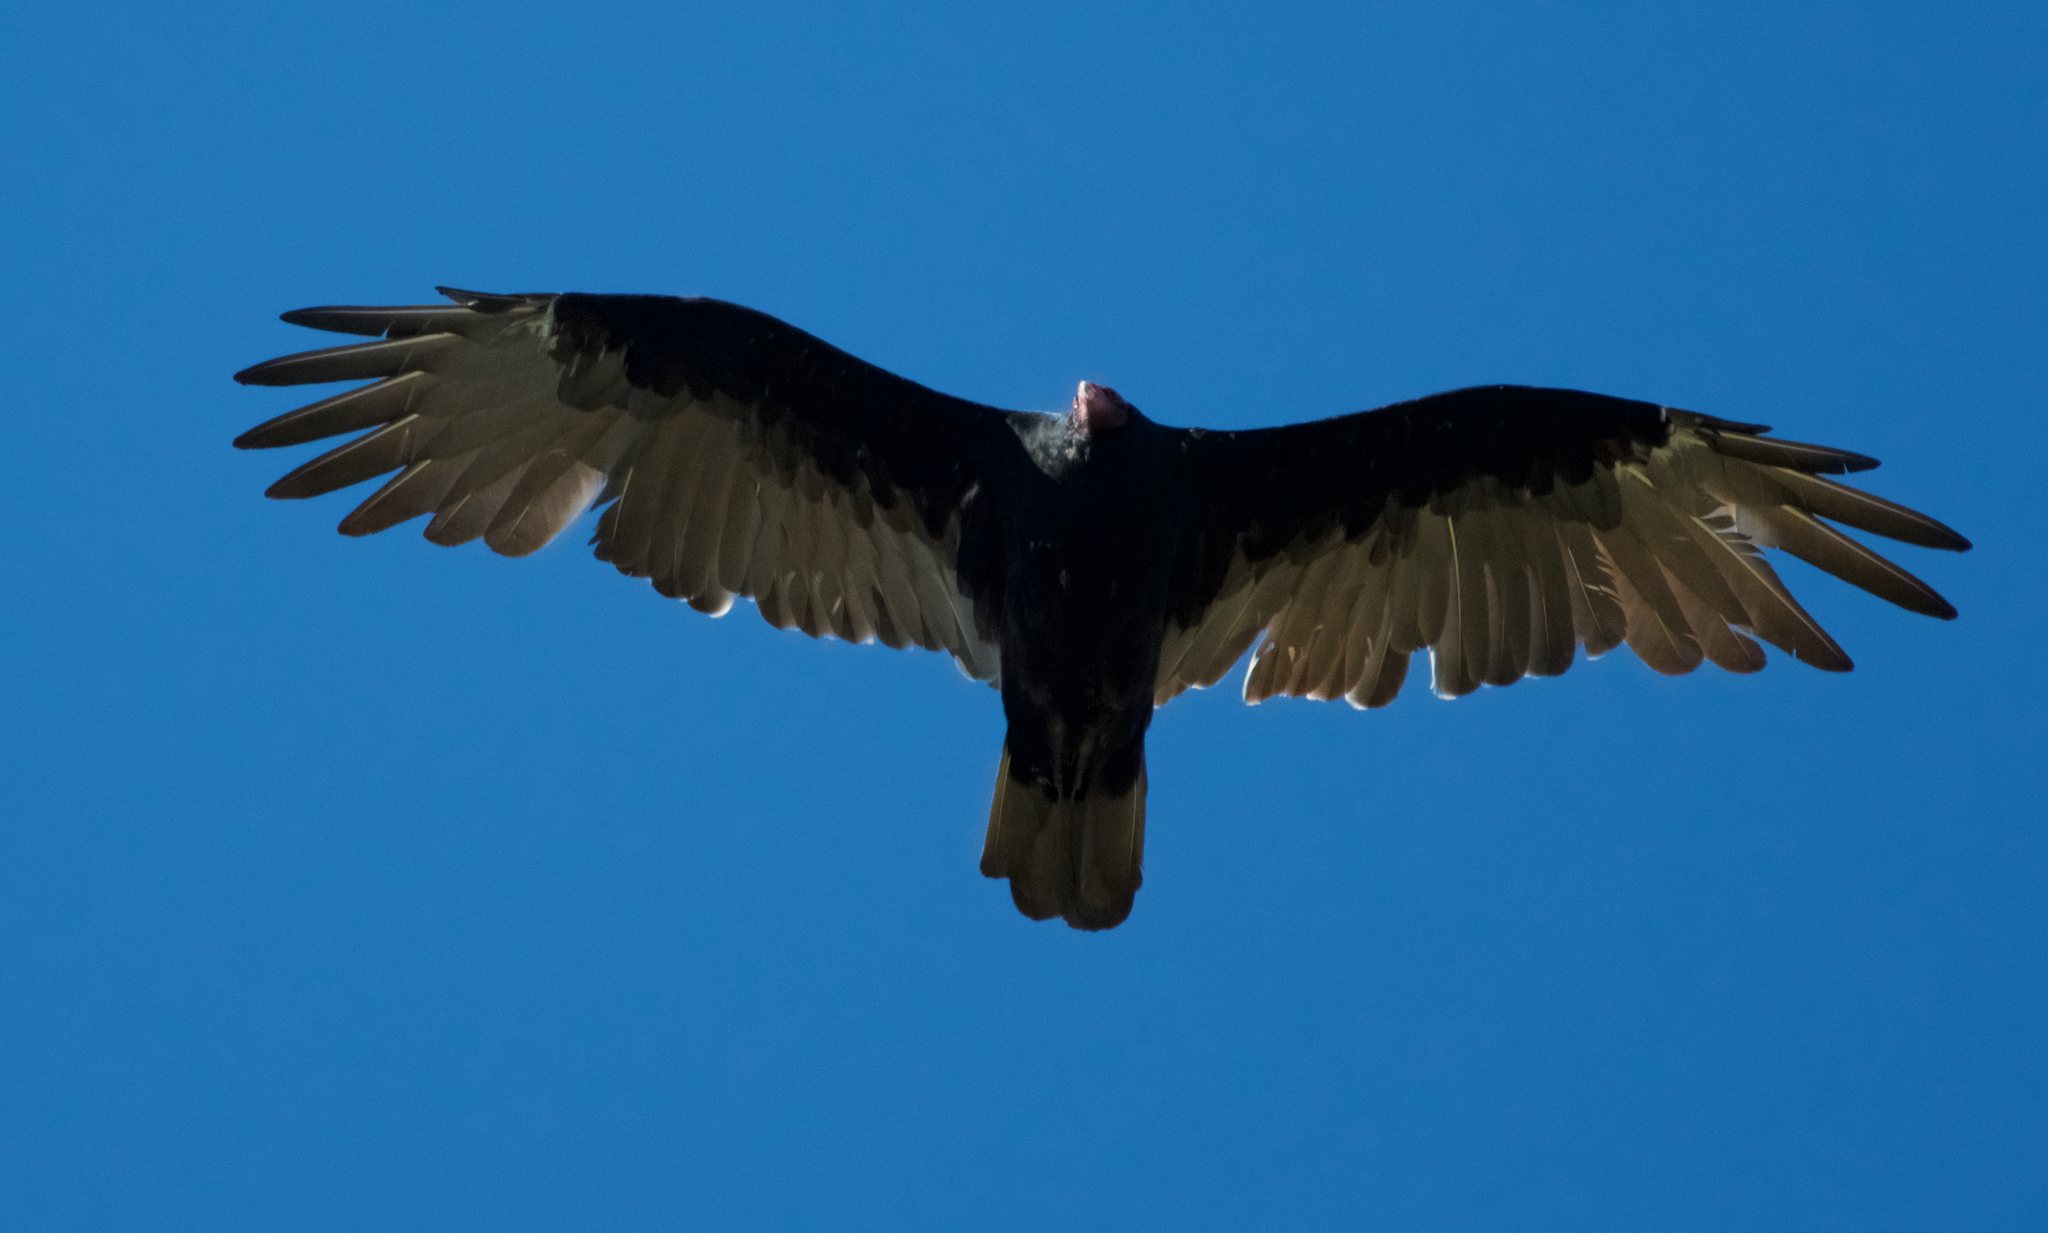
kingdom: Animalia
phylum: Chordata
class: Aves
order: Accipitriformes
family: Cathartidae
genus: Cathartes
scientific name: Cathartes aura
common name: Turkey vulture
